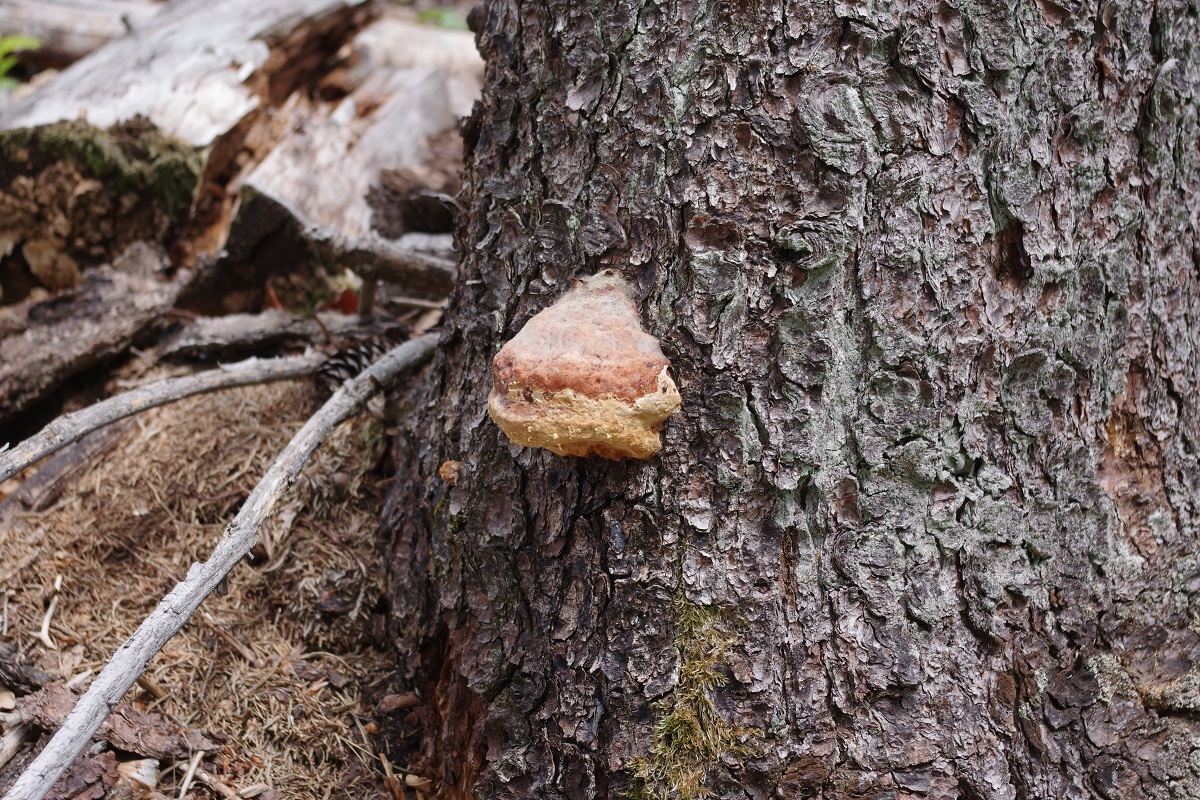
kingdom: Fungi
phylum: Basidiomycota
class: Agaricomycetes
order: Polyporales
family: Fomitopsidaceae
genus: Fomitopsis
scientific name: Fomitopsis pinicola
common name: Red-belted bracket
